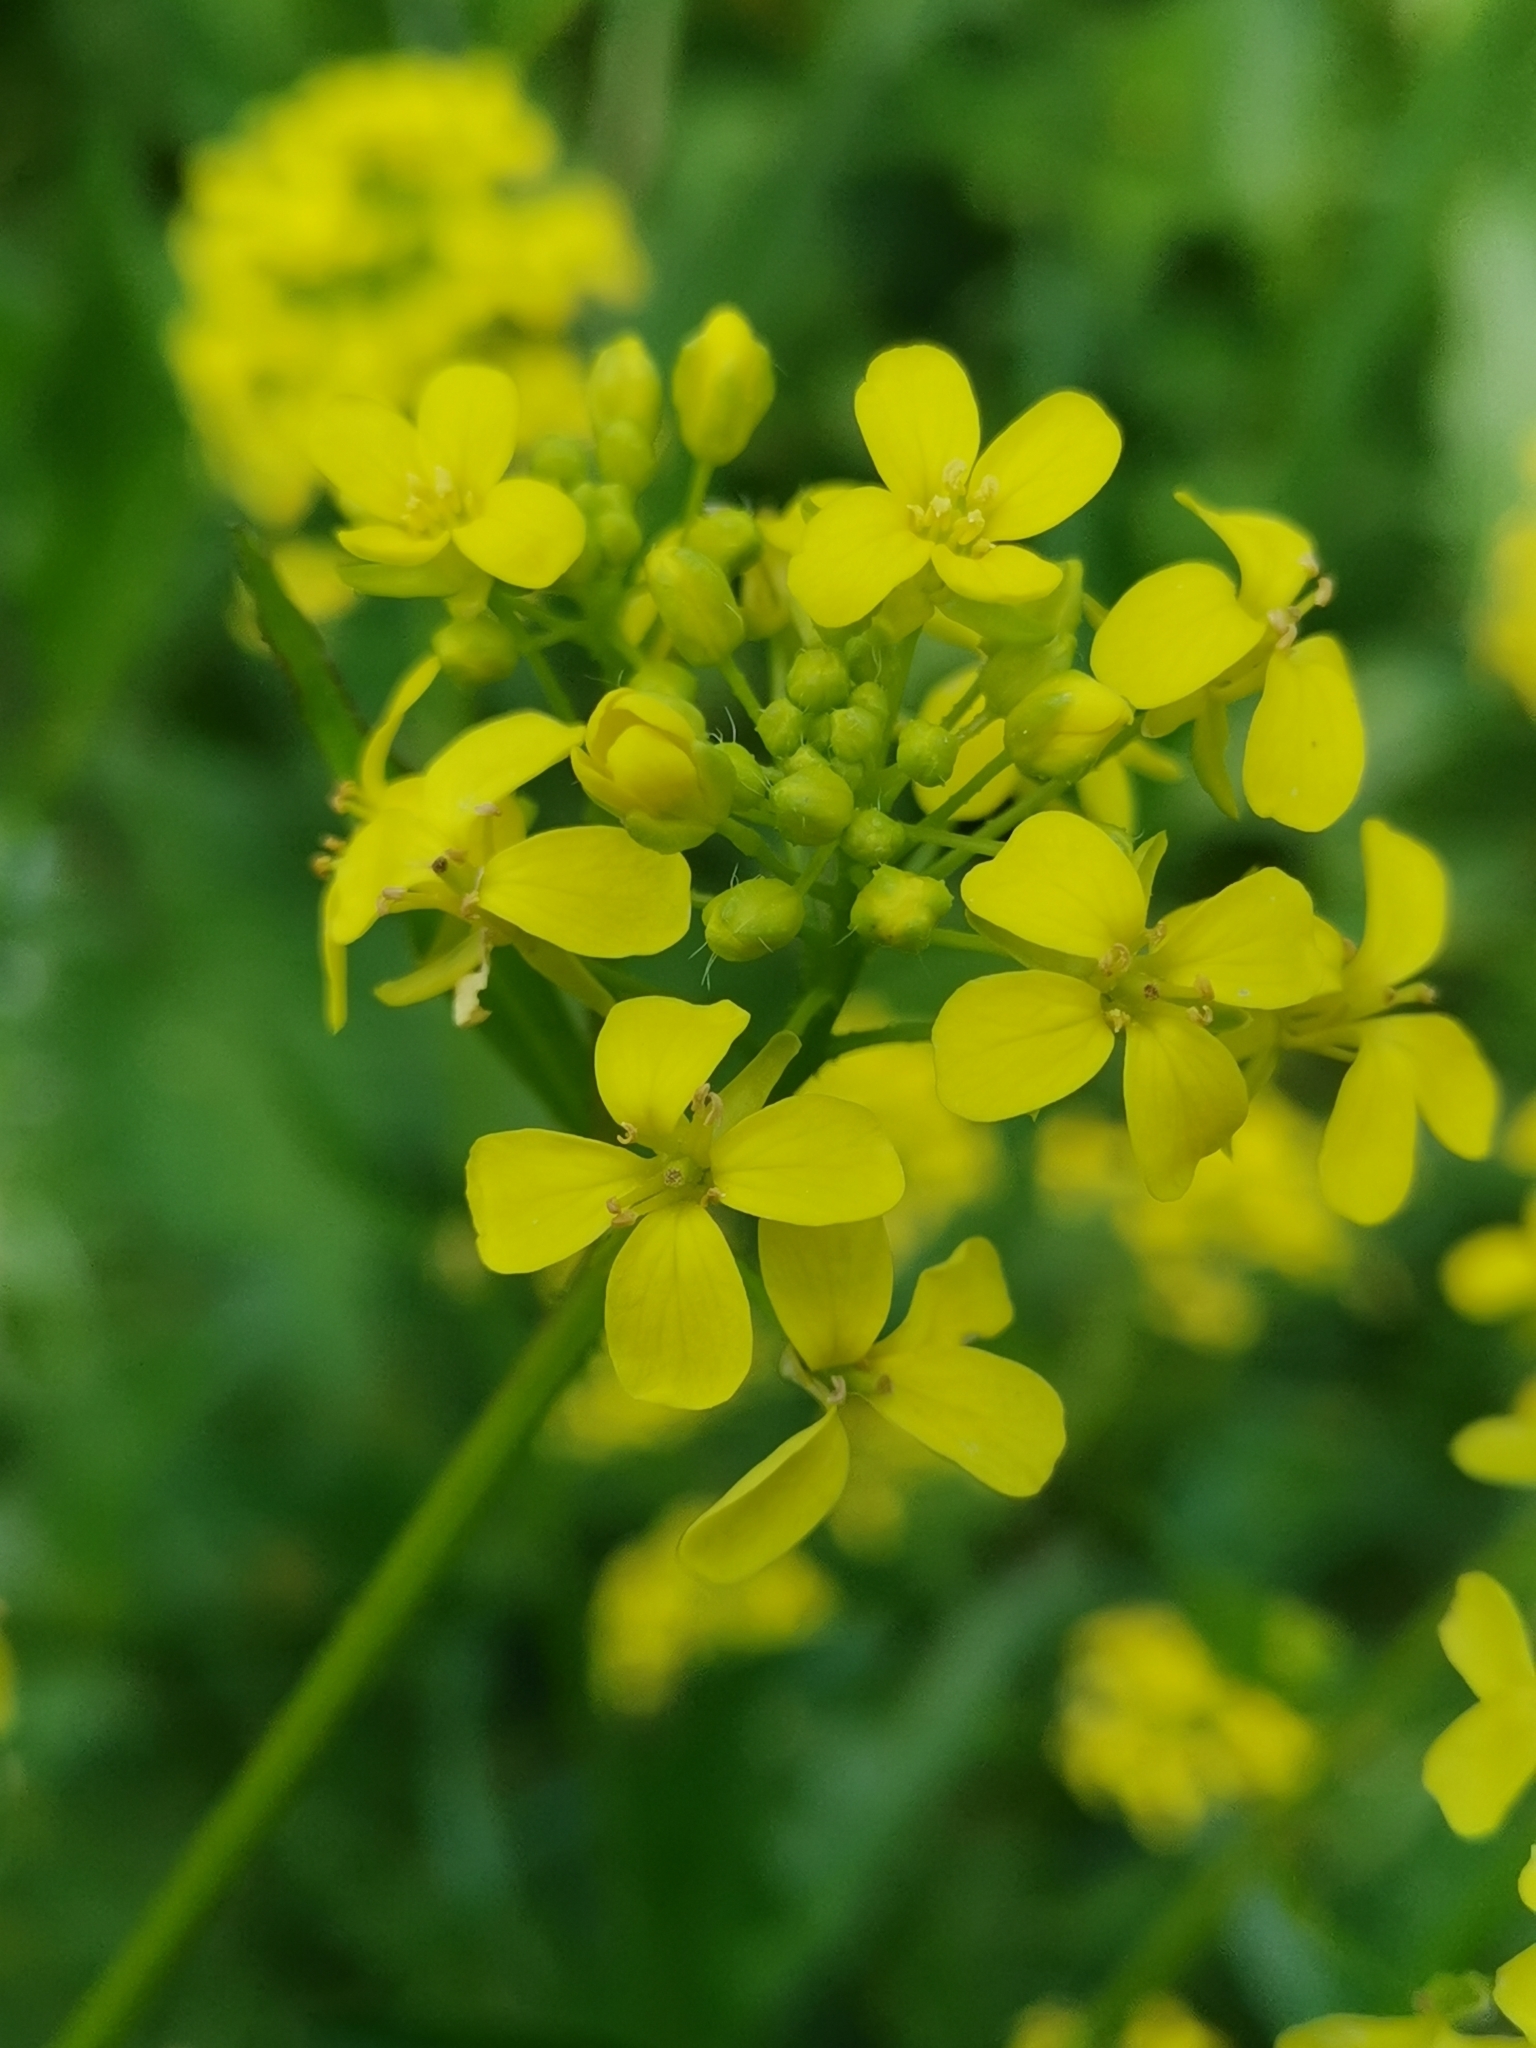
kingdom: Plantae
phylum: Tracheophyta
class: Magnoliopsida
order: Brassicales
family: Brassicaceae
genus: Bunias
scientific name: Bunias orientalis
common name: Warty-cabbage
